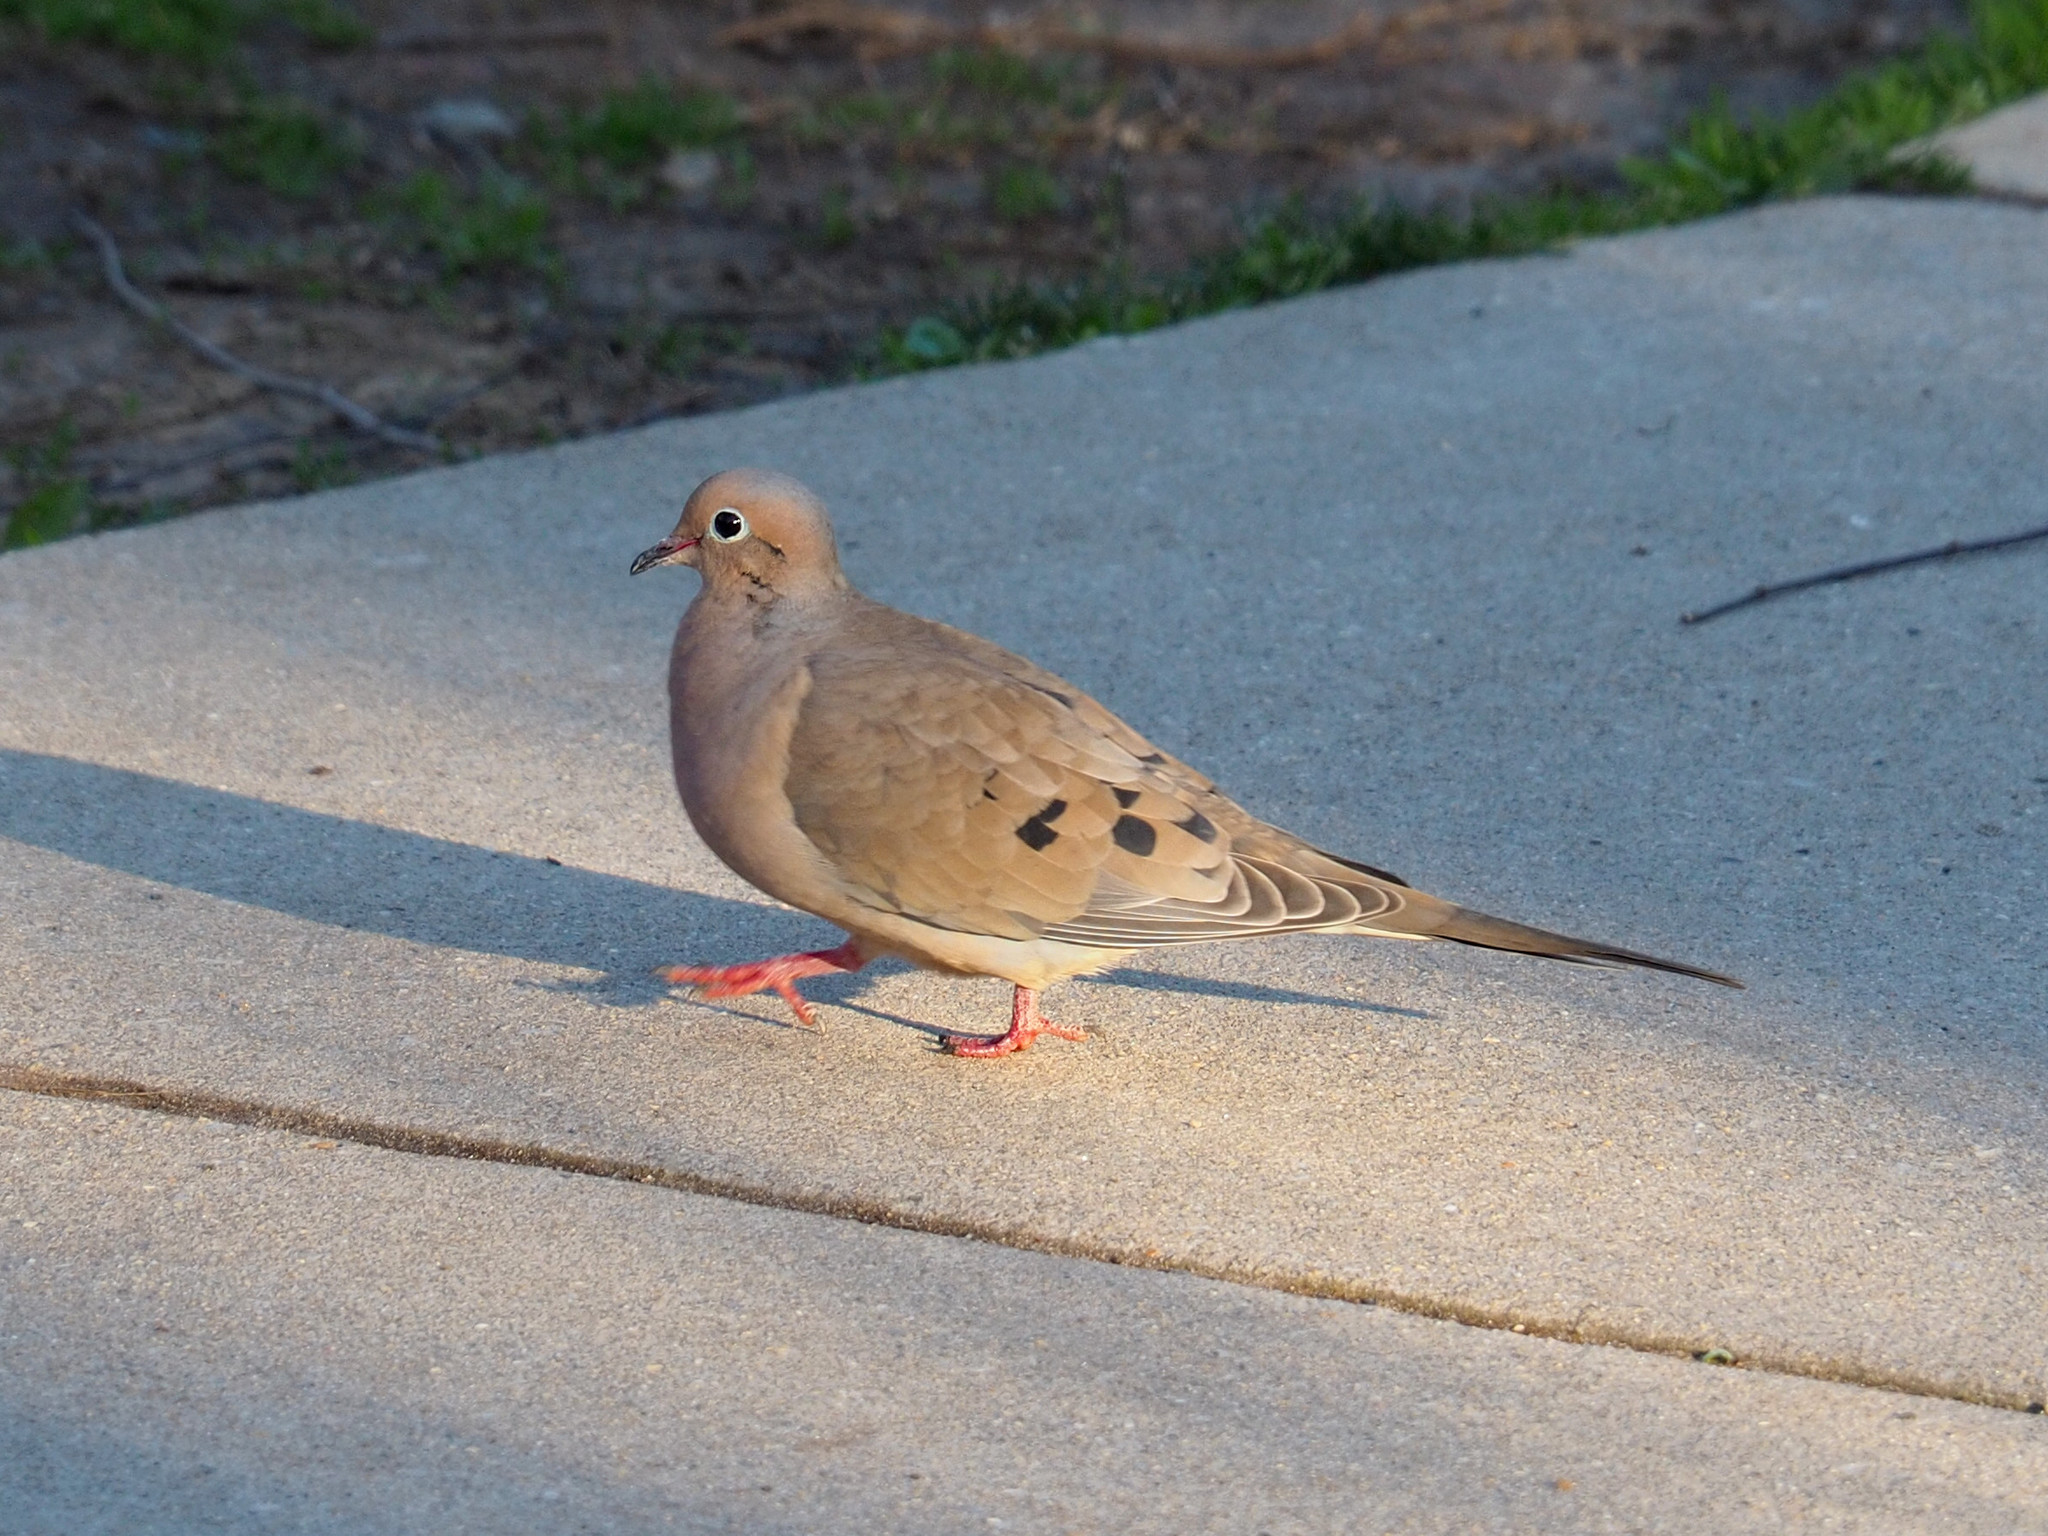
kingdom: Animalia
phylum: Chordata
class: Aves
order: Columbiformes
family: Columbidae
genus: Zenaida
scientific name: Zenaida macroura
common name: Mourning dove
